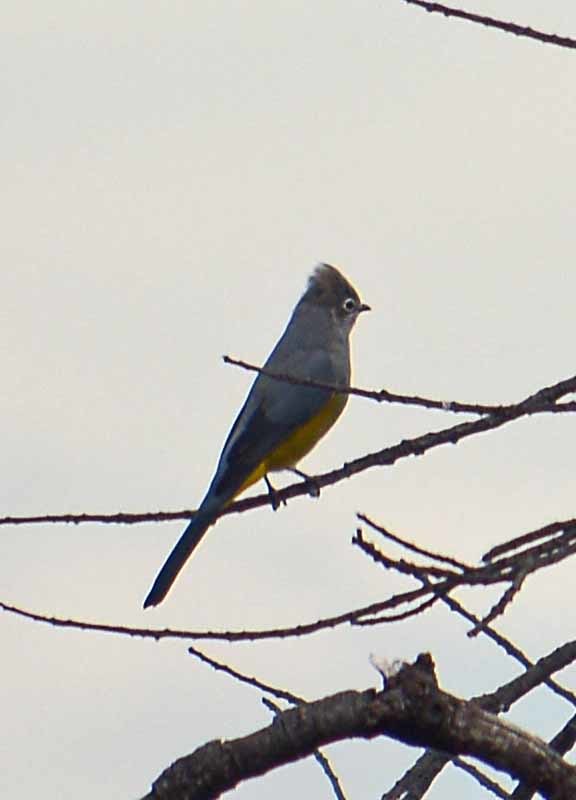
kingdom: Animalia
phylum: Chordata
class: Aves
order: Passeriformes
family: Ptilogonatidae
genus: Ptilogonys
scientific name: Ptilogonys cinereus
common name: Gray silky-flycatcher
